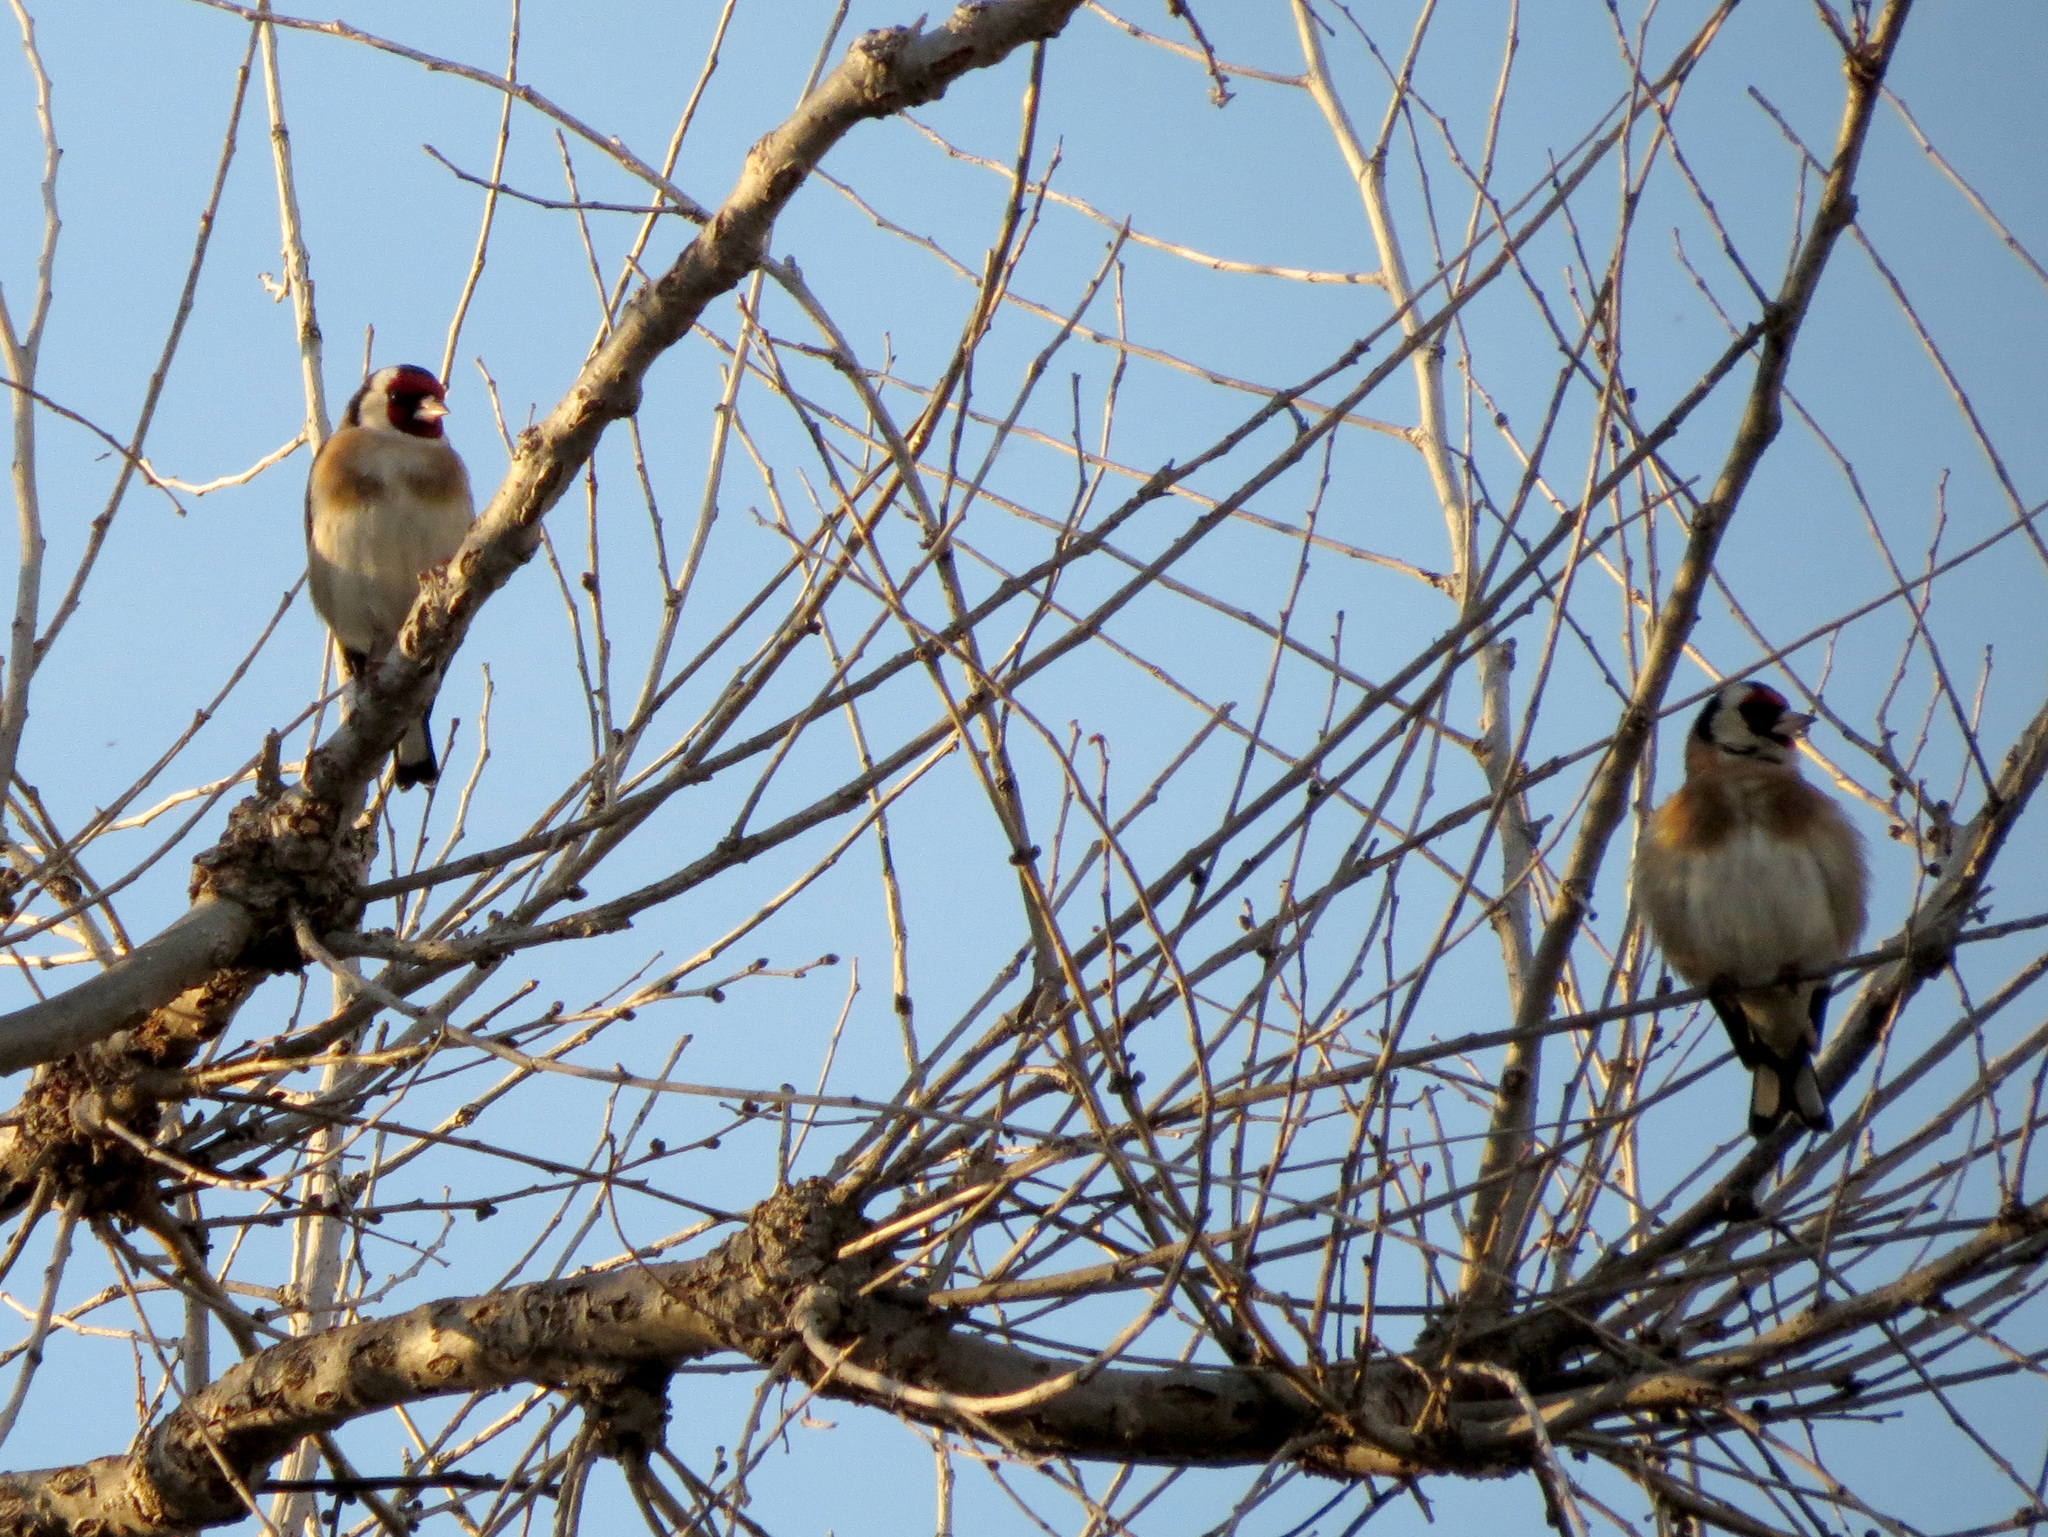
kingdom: Animalia
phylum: Chordata
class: Aves
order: Passeriformes
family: Fringillidae
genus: Carduelis
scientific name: Carduelis carduelis
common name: European goldfinch
